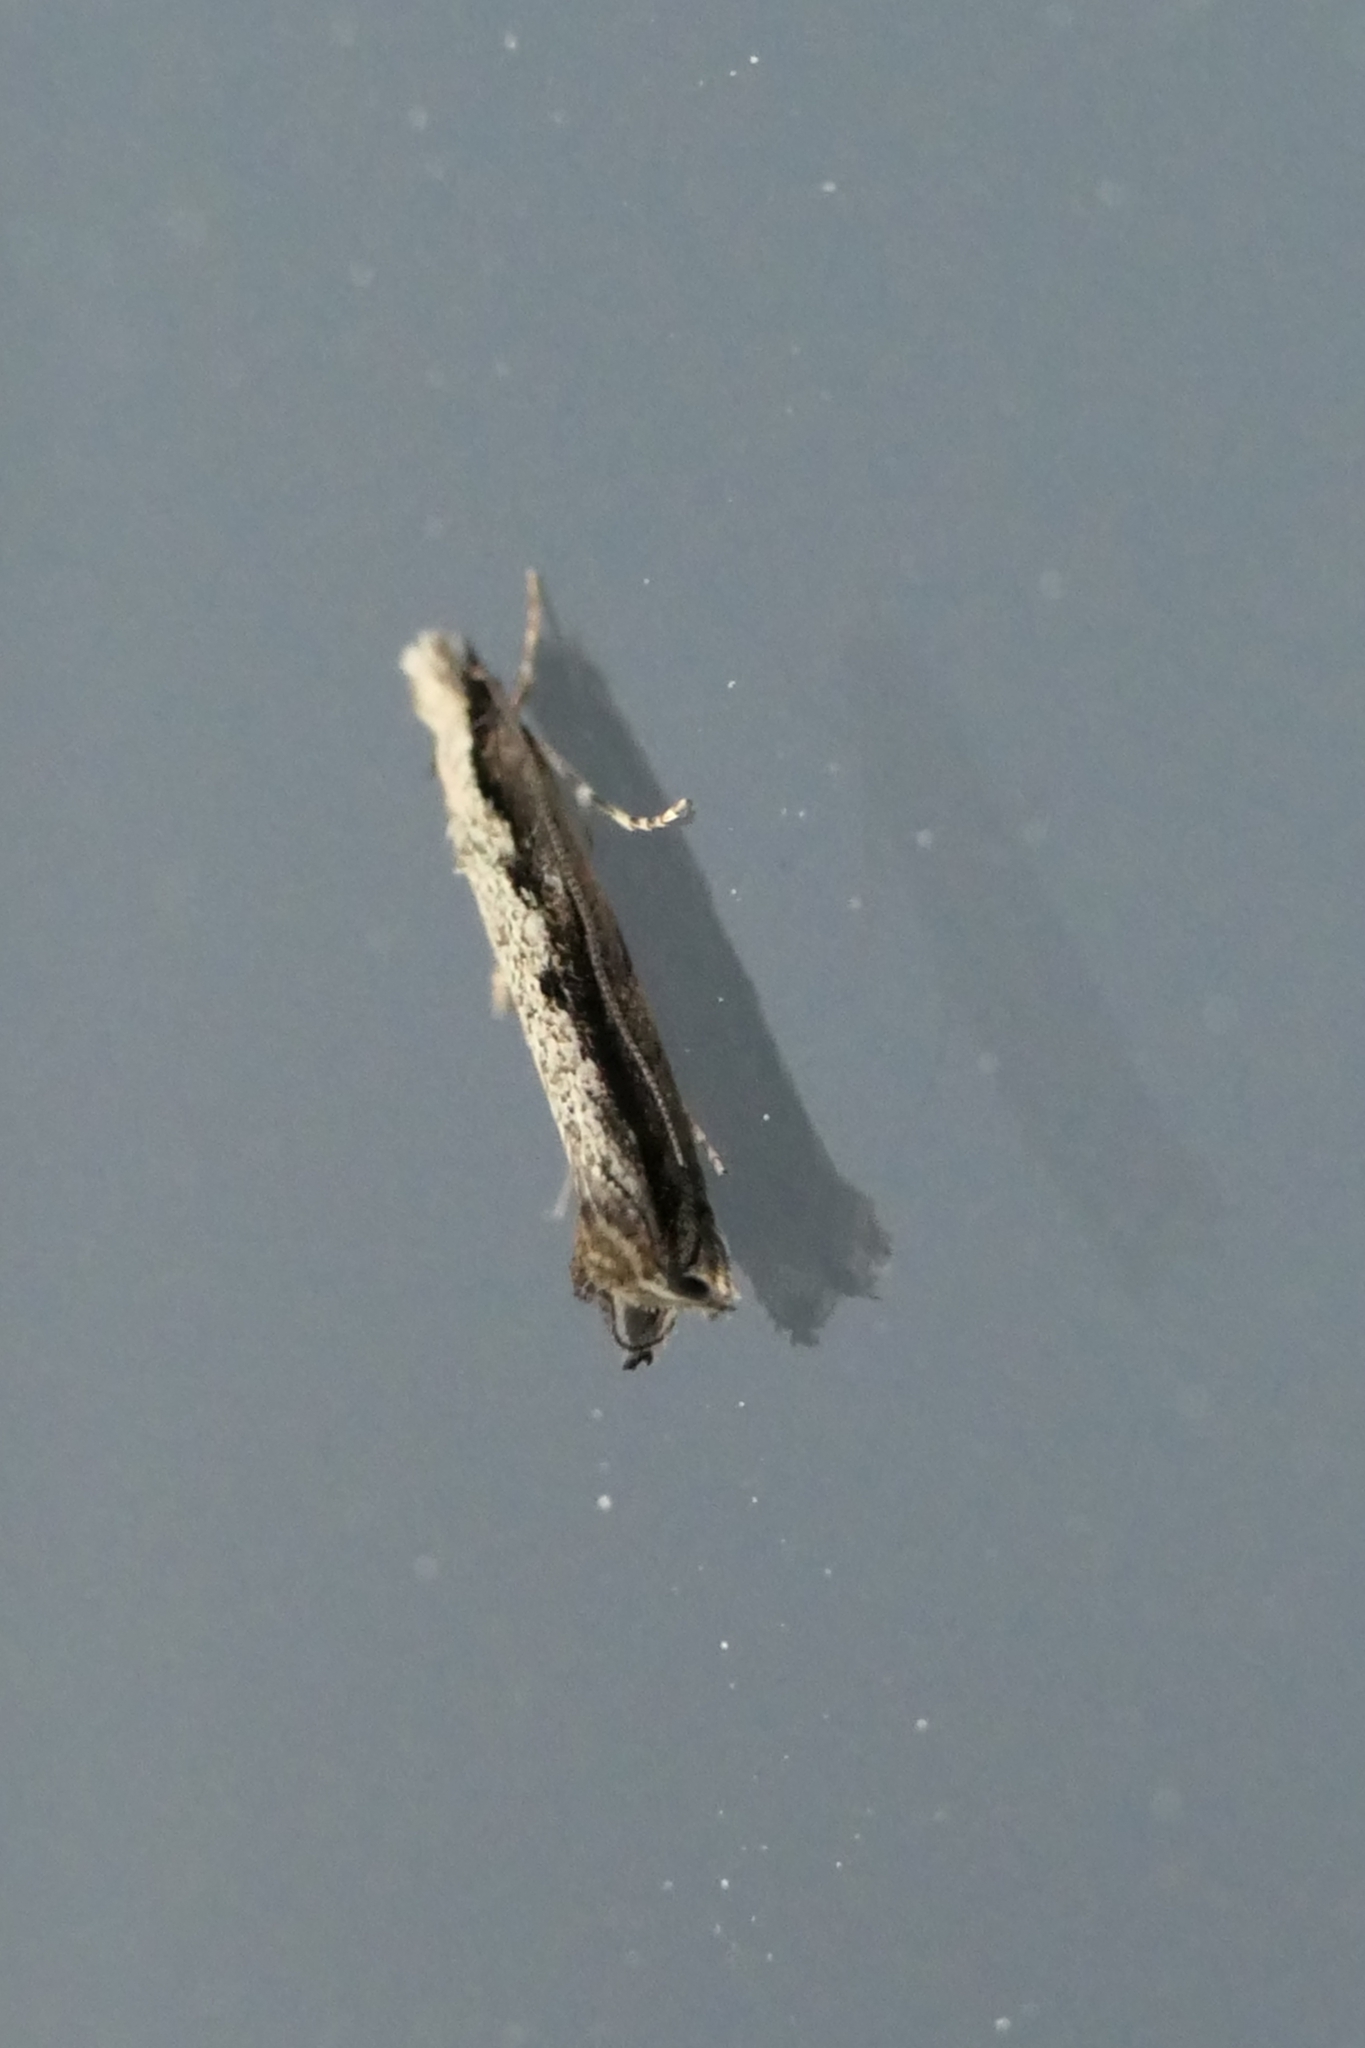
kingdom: Animalia
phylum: Arthropoda
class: Insecta
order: Lepidoptera
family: Tineidae
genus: Erechthias
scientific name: Erechthias fulguritella
